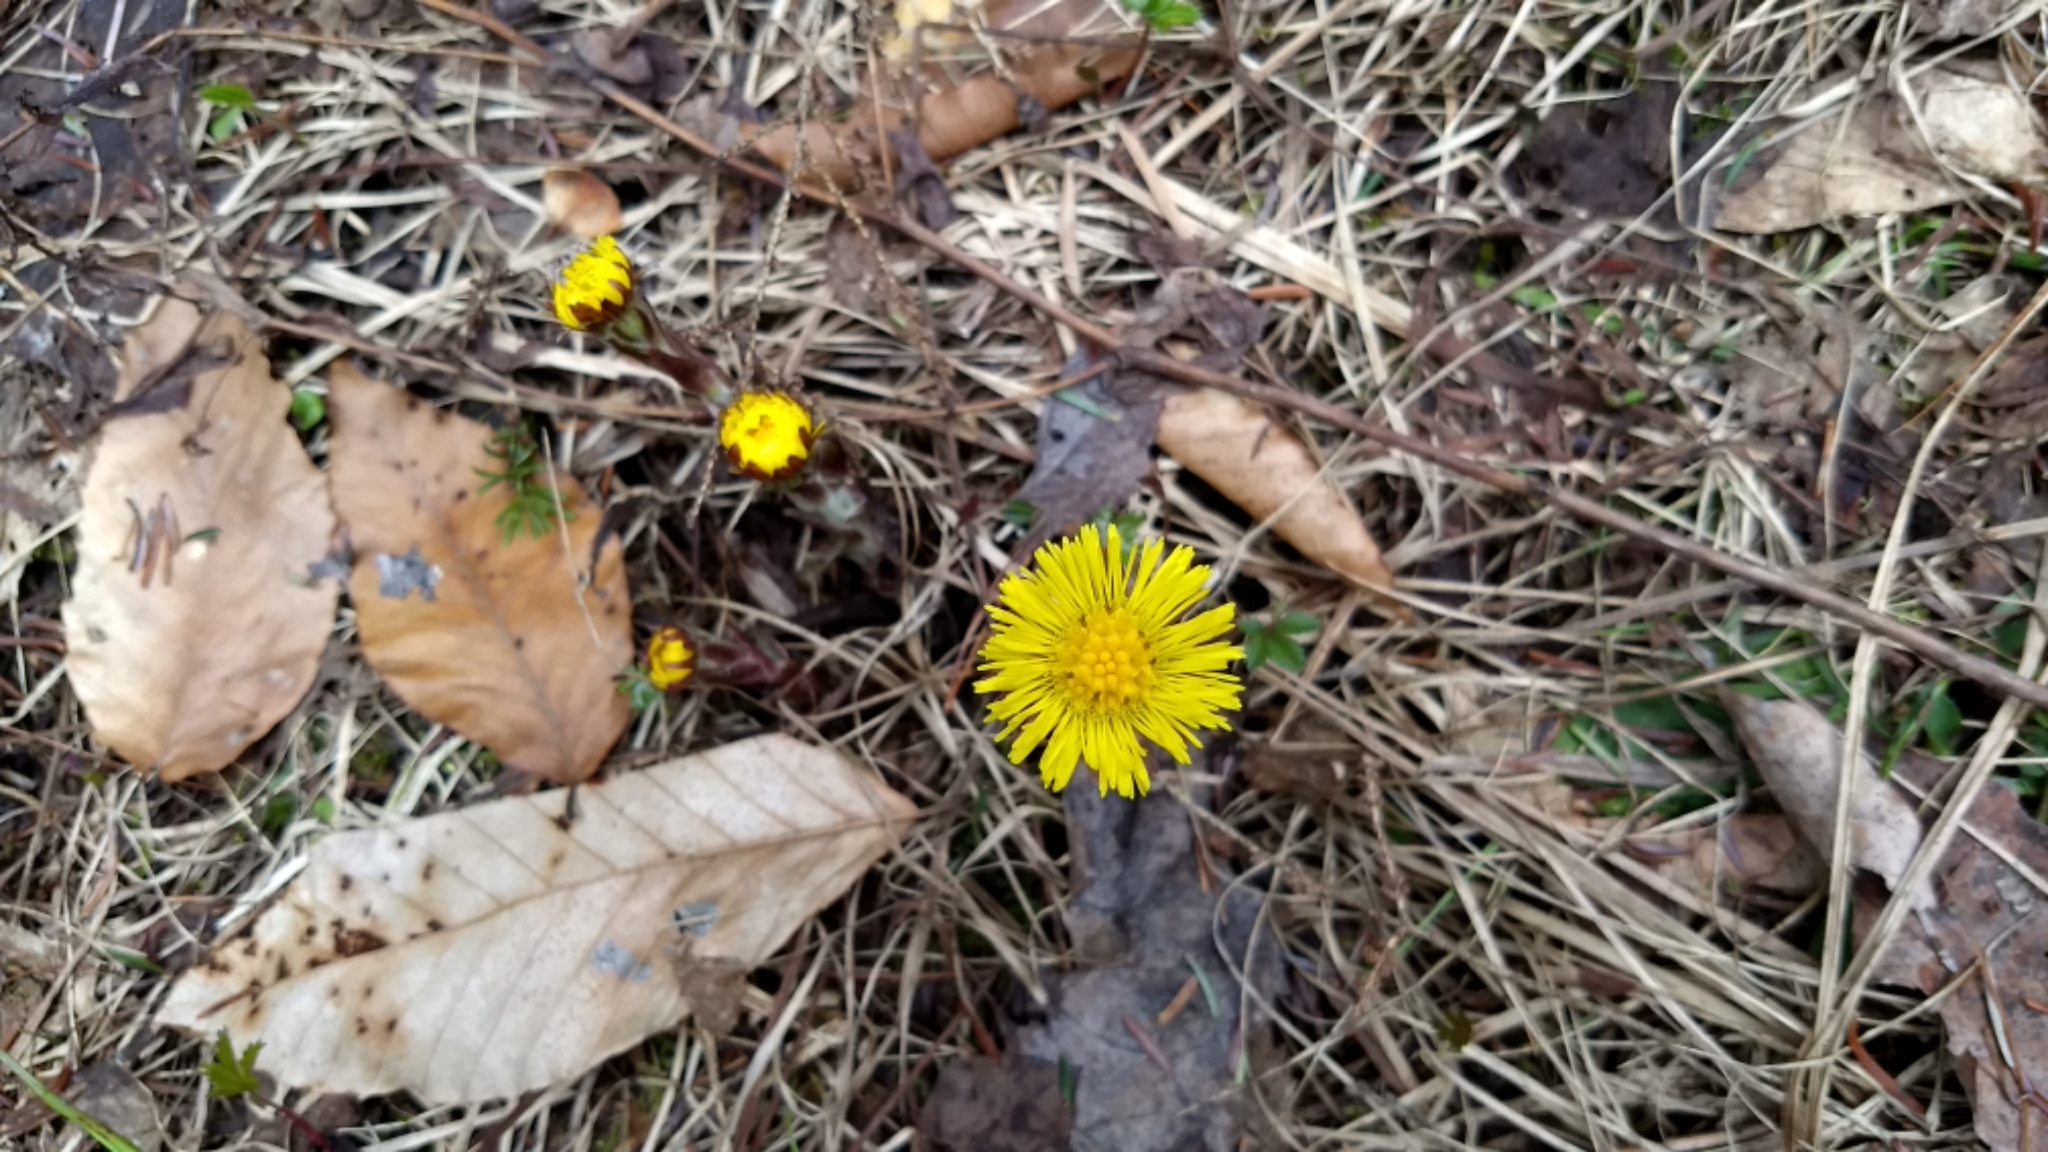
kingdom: Plantae
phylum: Tracheophyta
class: Magnoliopsida
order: Asterales
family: Asteraceae
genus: Tussilago
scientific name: Tussilago farfara
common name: Coltsfoot
